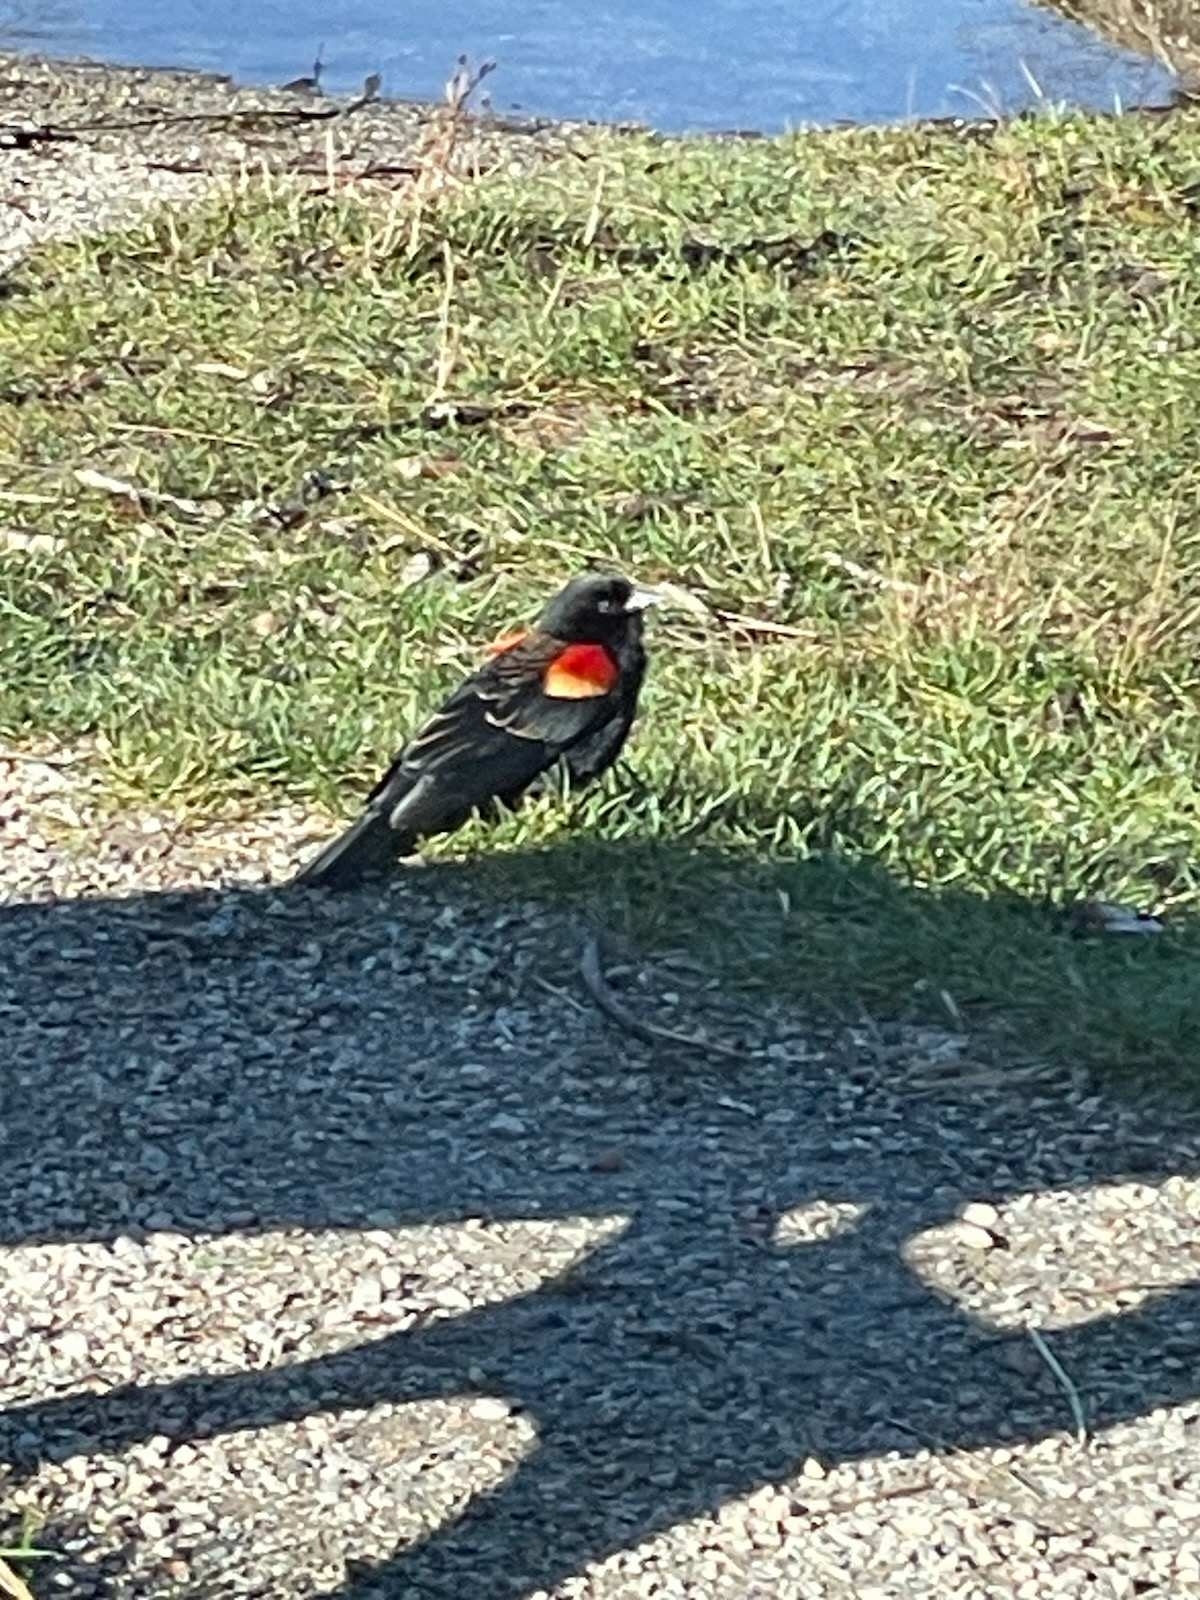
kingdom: Animalia
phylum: Chordata
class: Aves
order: Passeriformes
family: Icteridae
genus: Agelaius
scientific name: Agelaius phoeniceus
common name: Red-winged blackbird
